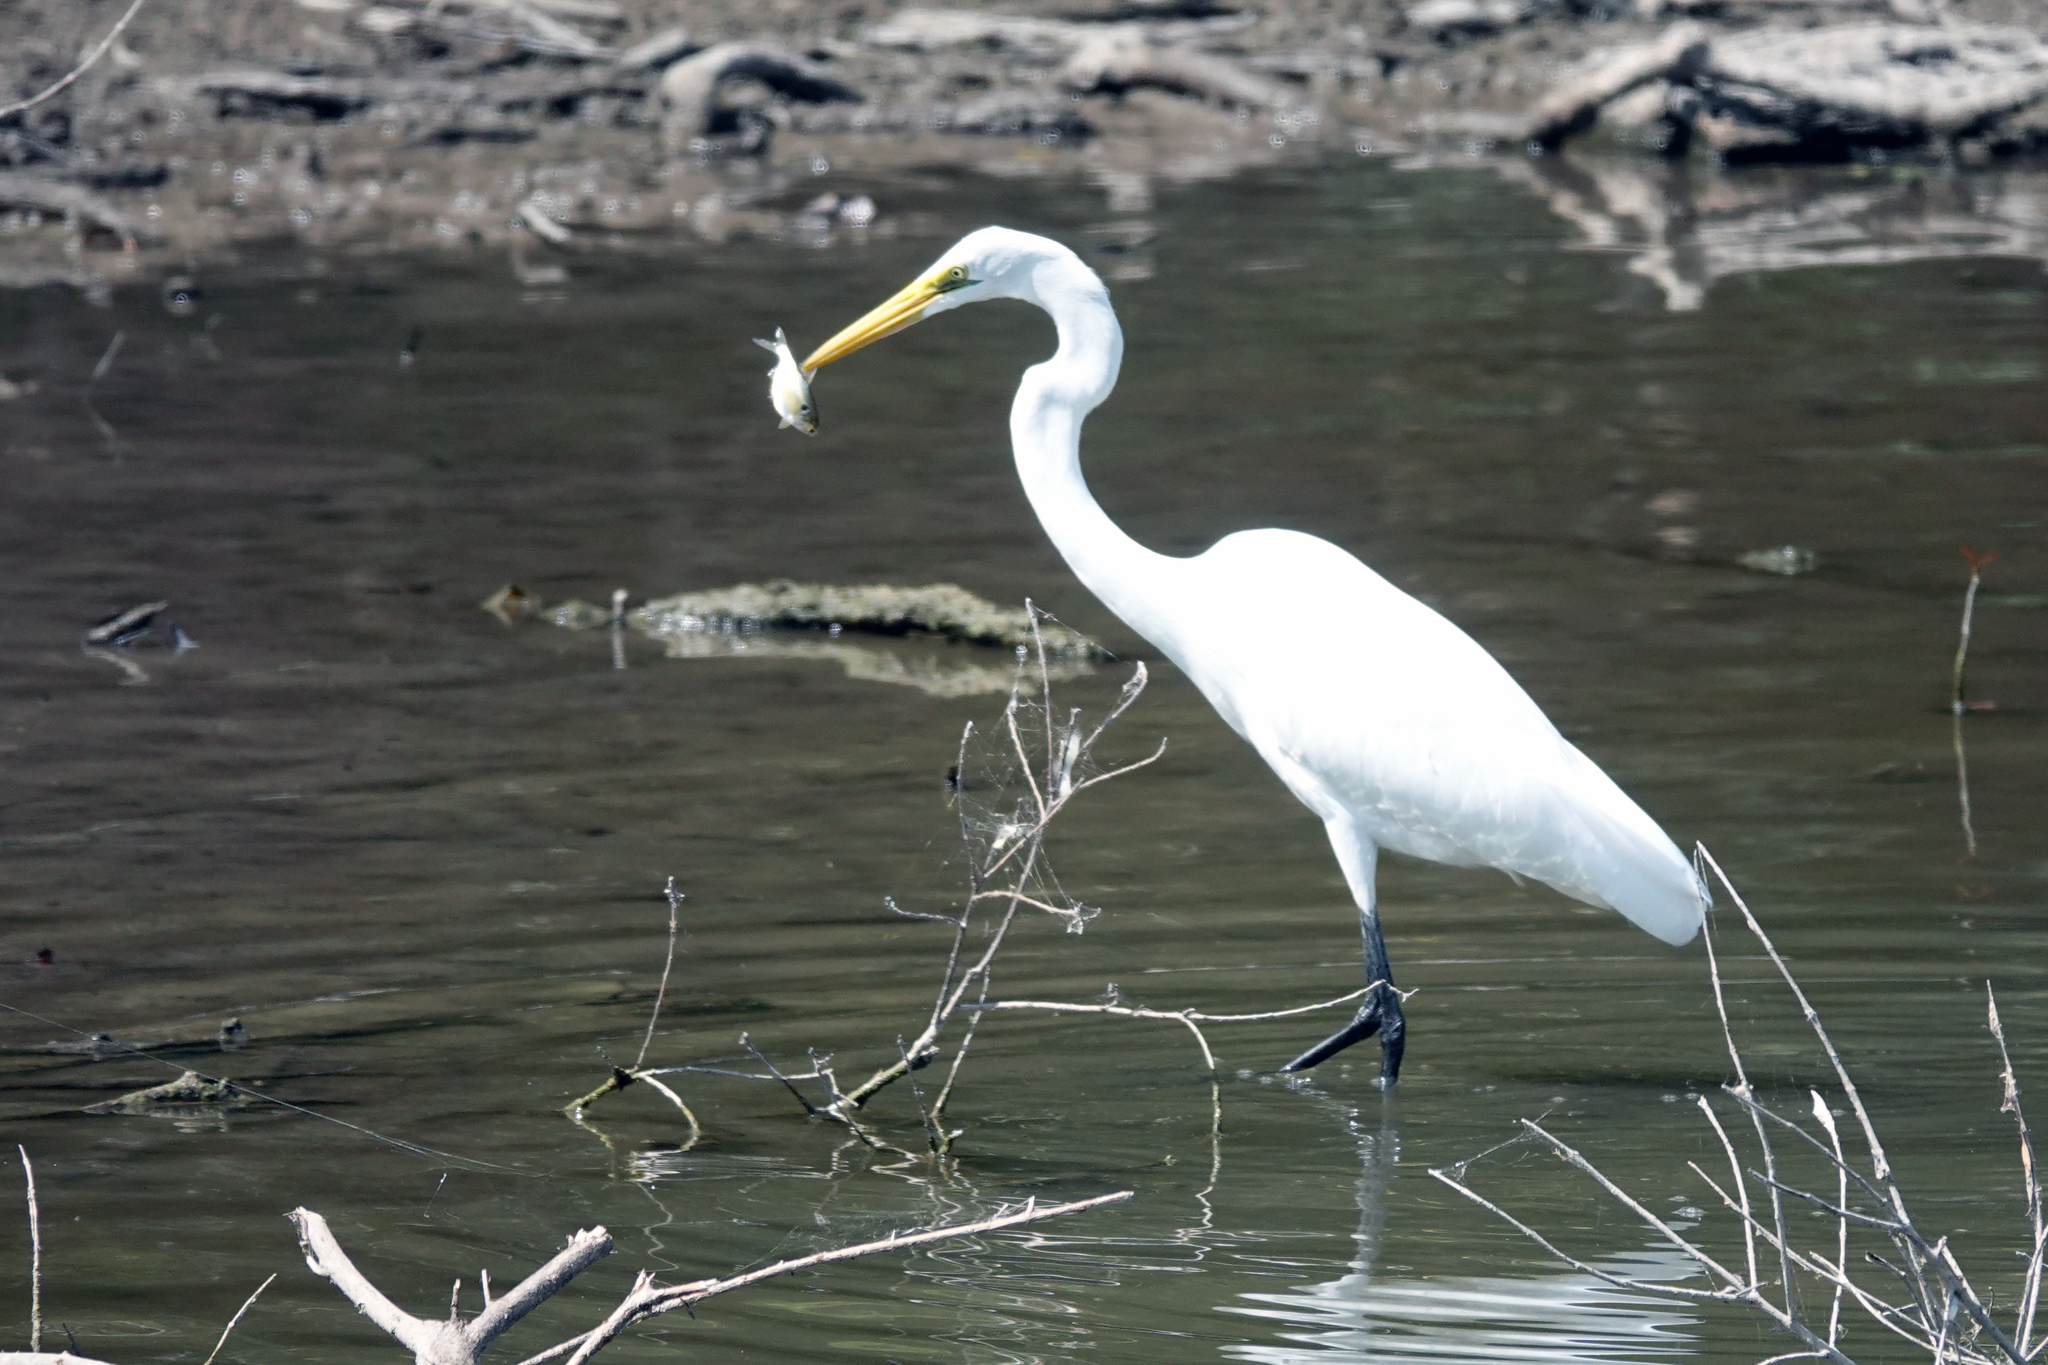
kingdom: Animalia
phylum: Chordata
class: Aves
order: Pelecaniformes
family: Ardeidae
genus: Ardea
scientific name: Ardea alba
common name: Great egret
